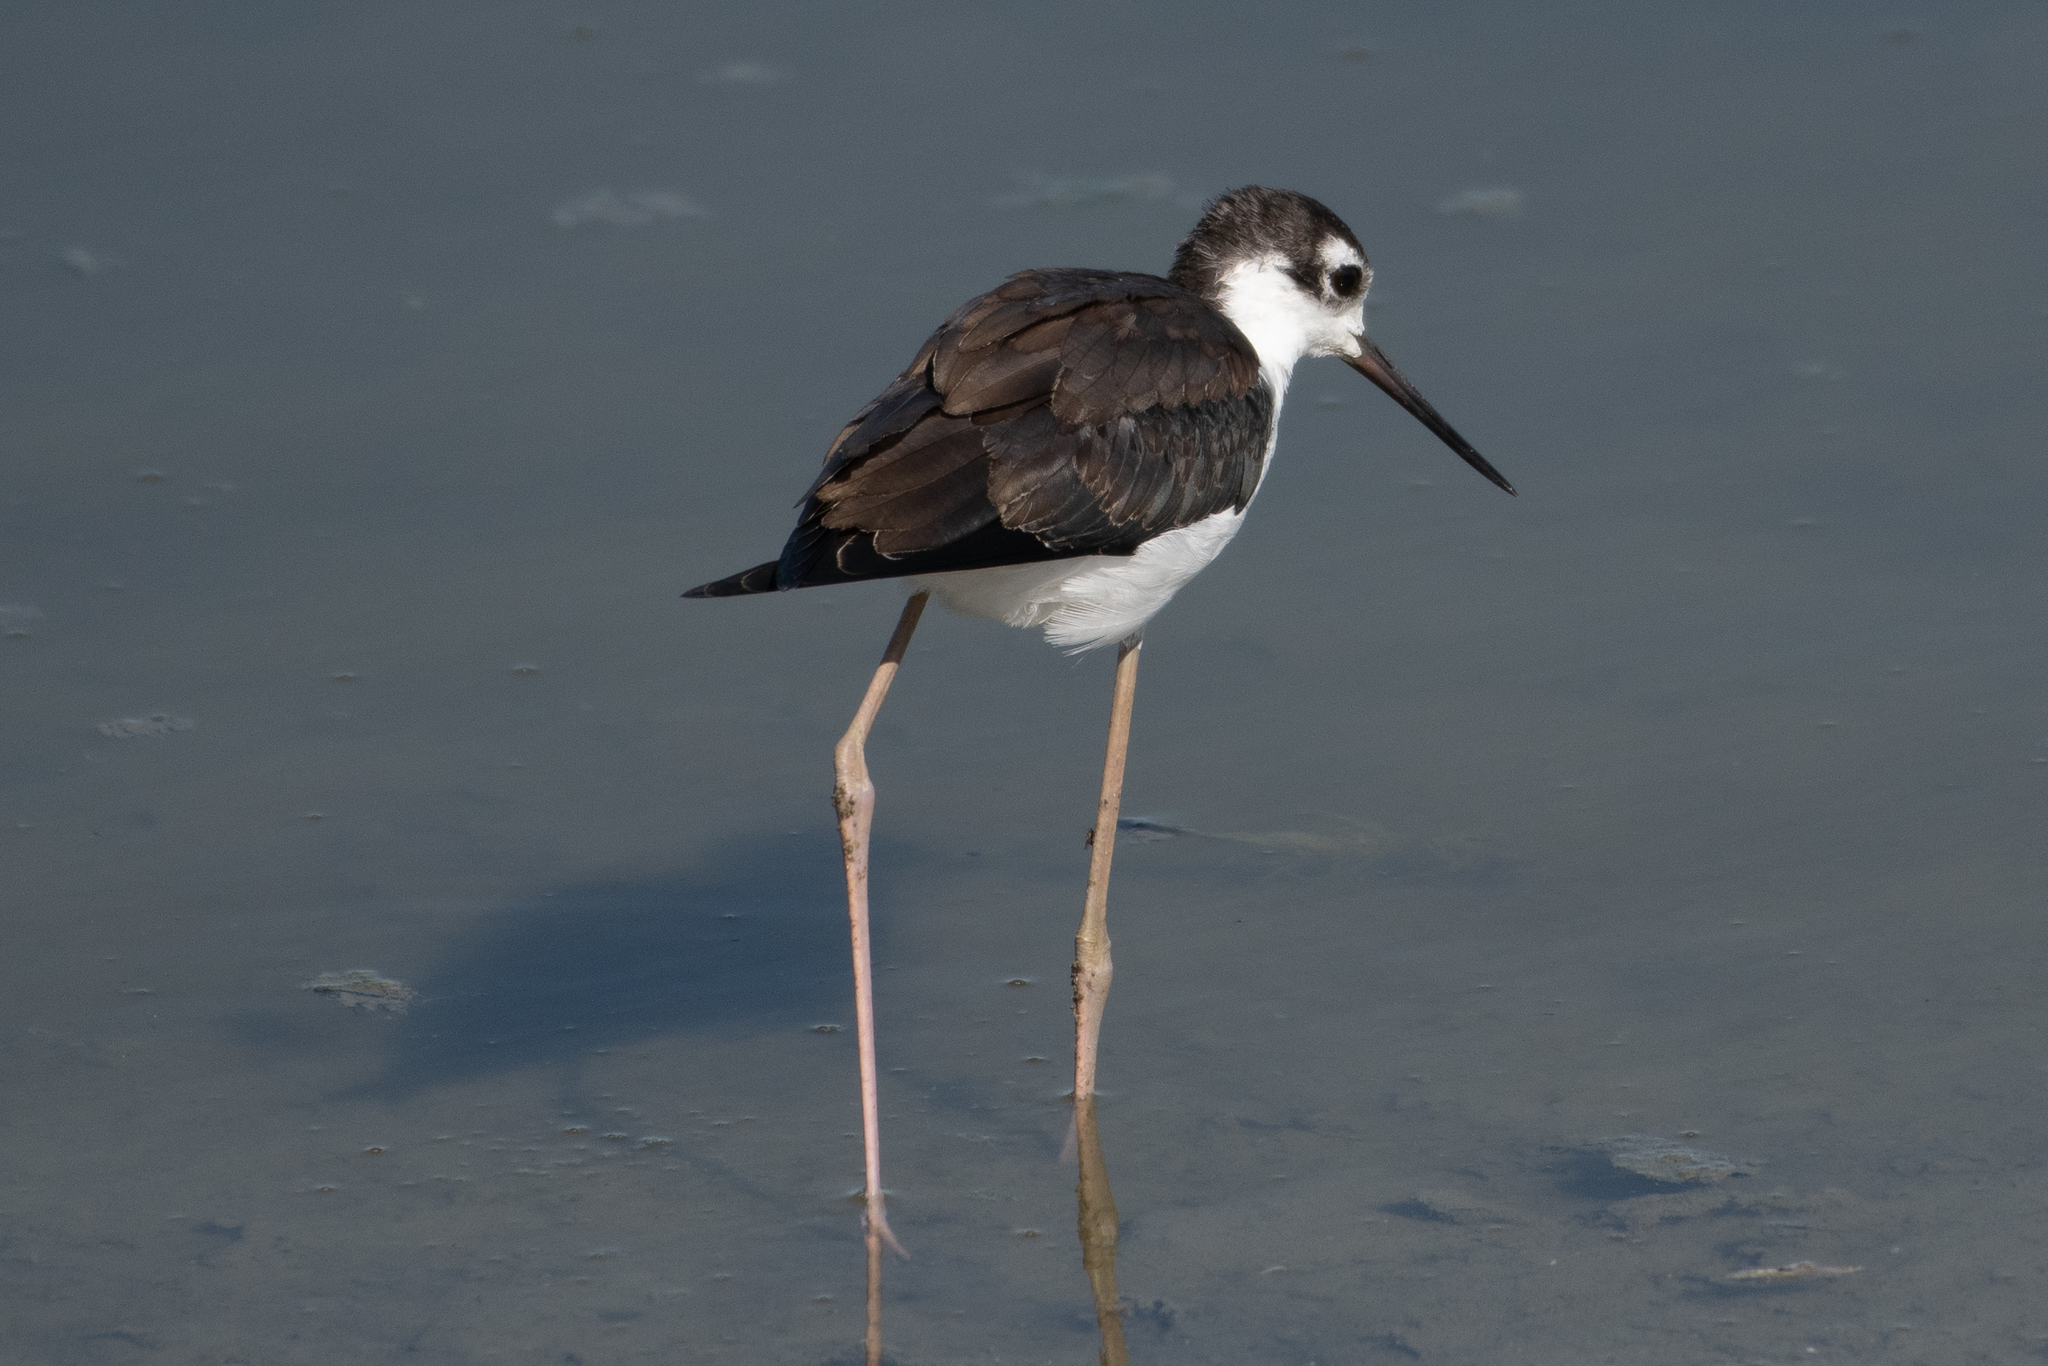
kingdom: Animalia
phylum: Chordata
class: Aves
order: Charadriiformes
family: Recurvirostridae
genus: Himantopus
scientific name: Himantopus mexicanus
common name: Black-necked stilt
